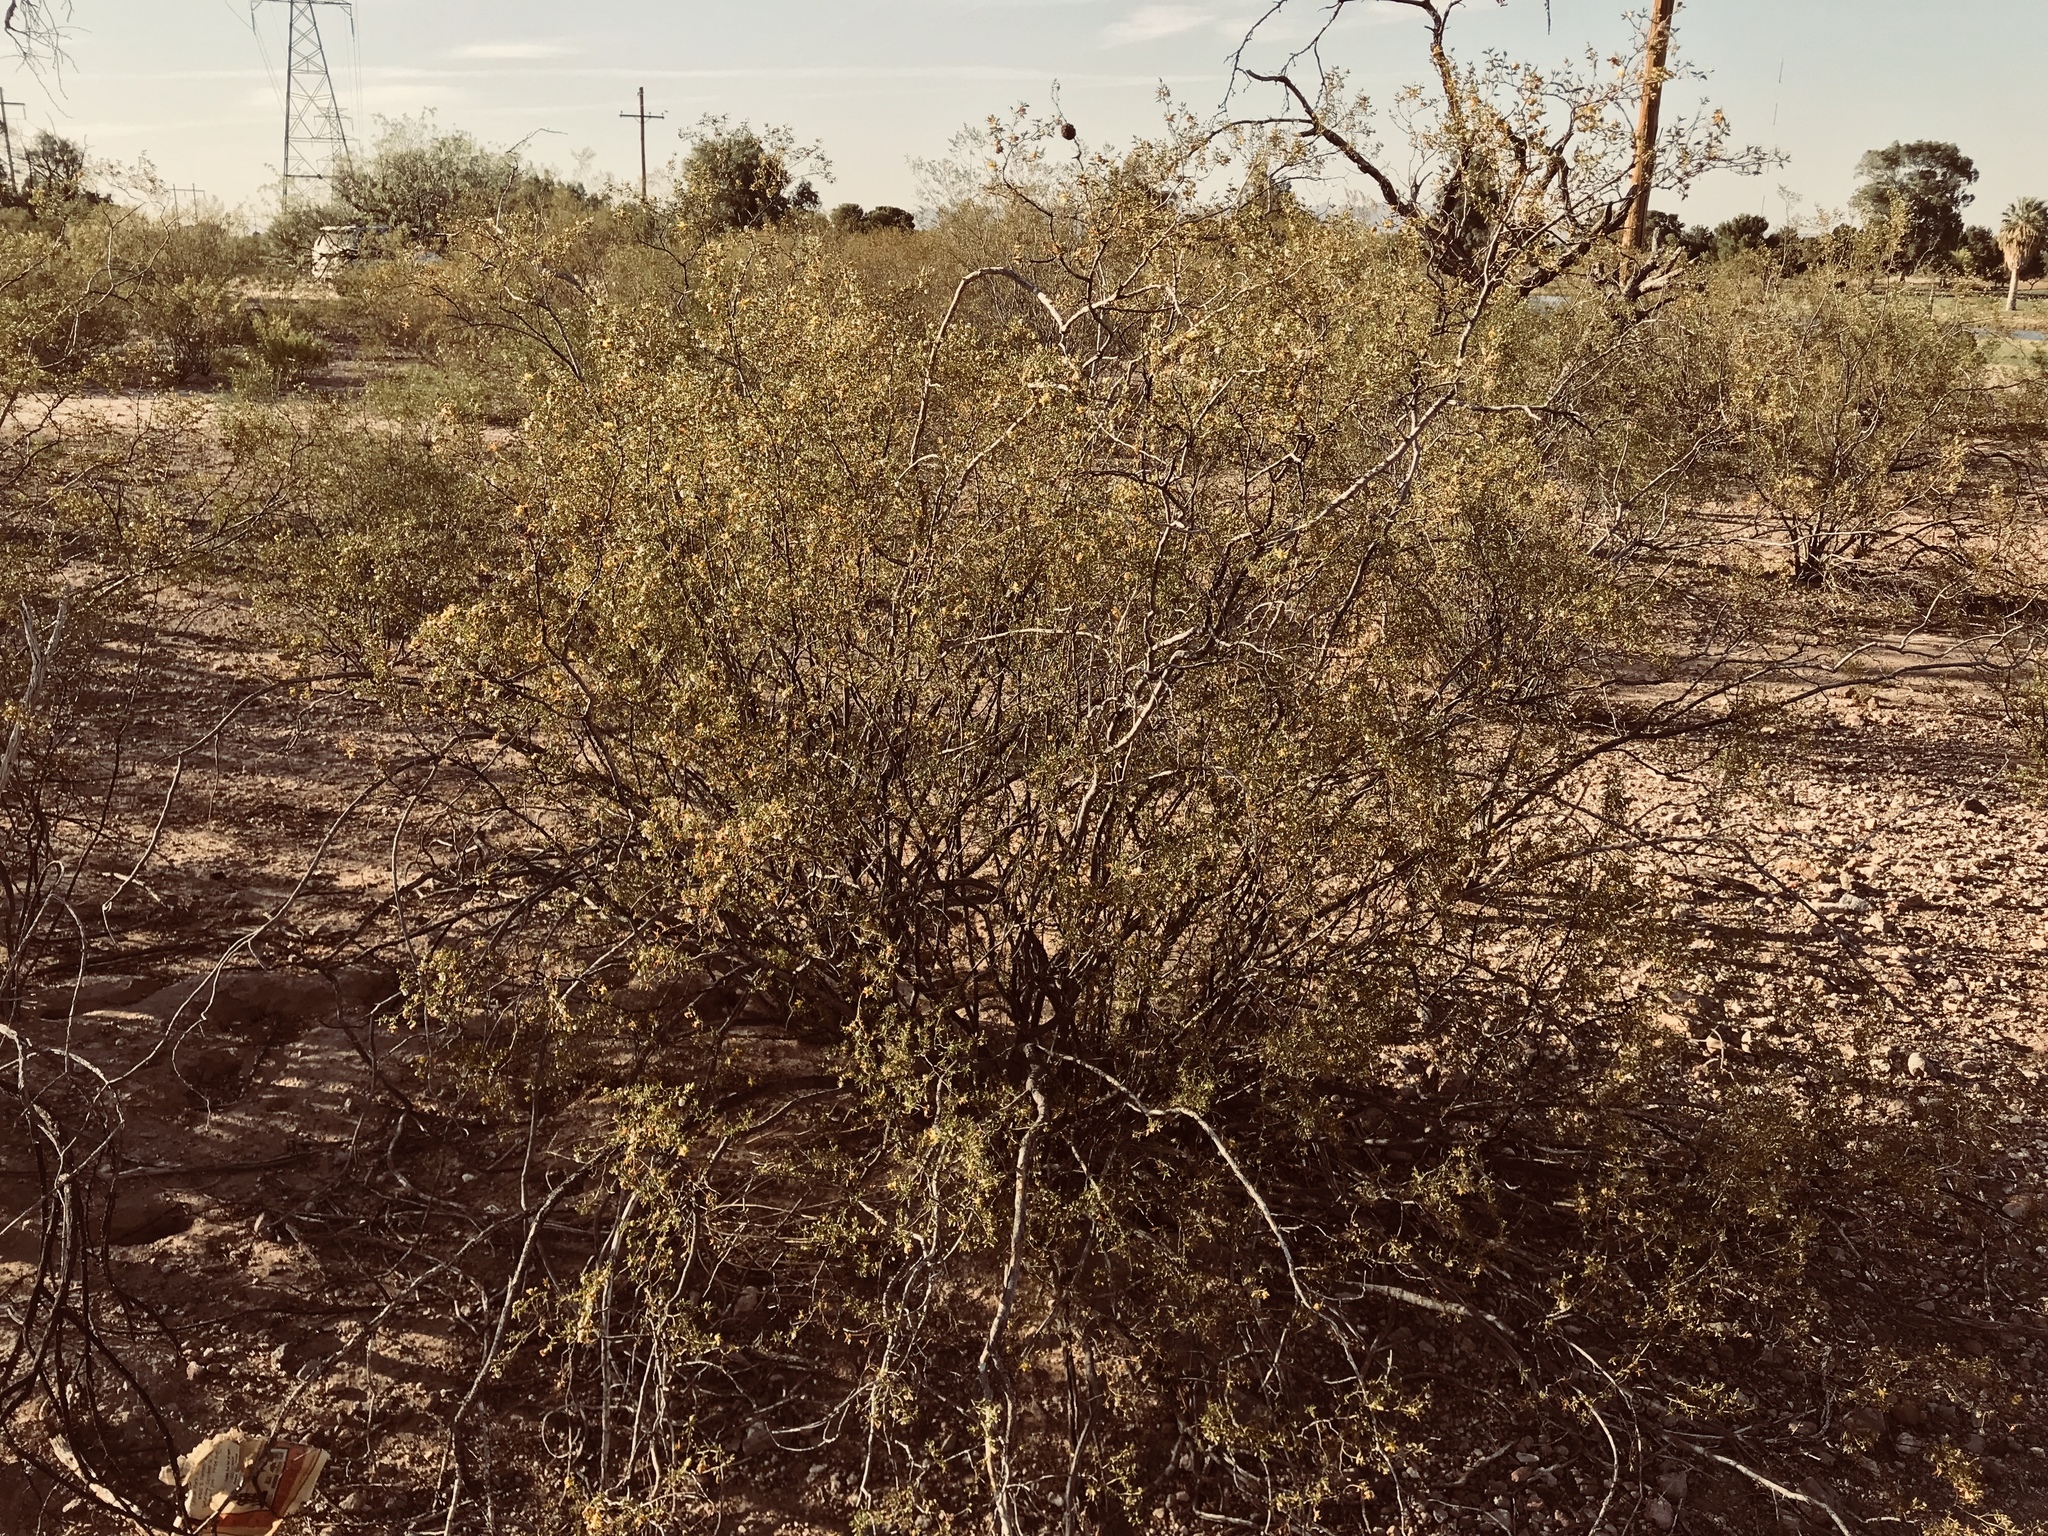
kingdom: Plantae
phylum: Tracheophyta
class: Magnoliopsida
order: Zygophyllales
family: Zygophyllaceae
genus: Larrea
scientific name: Larrea tridentata
